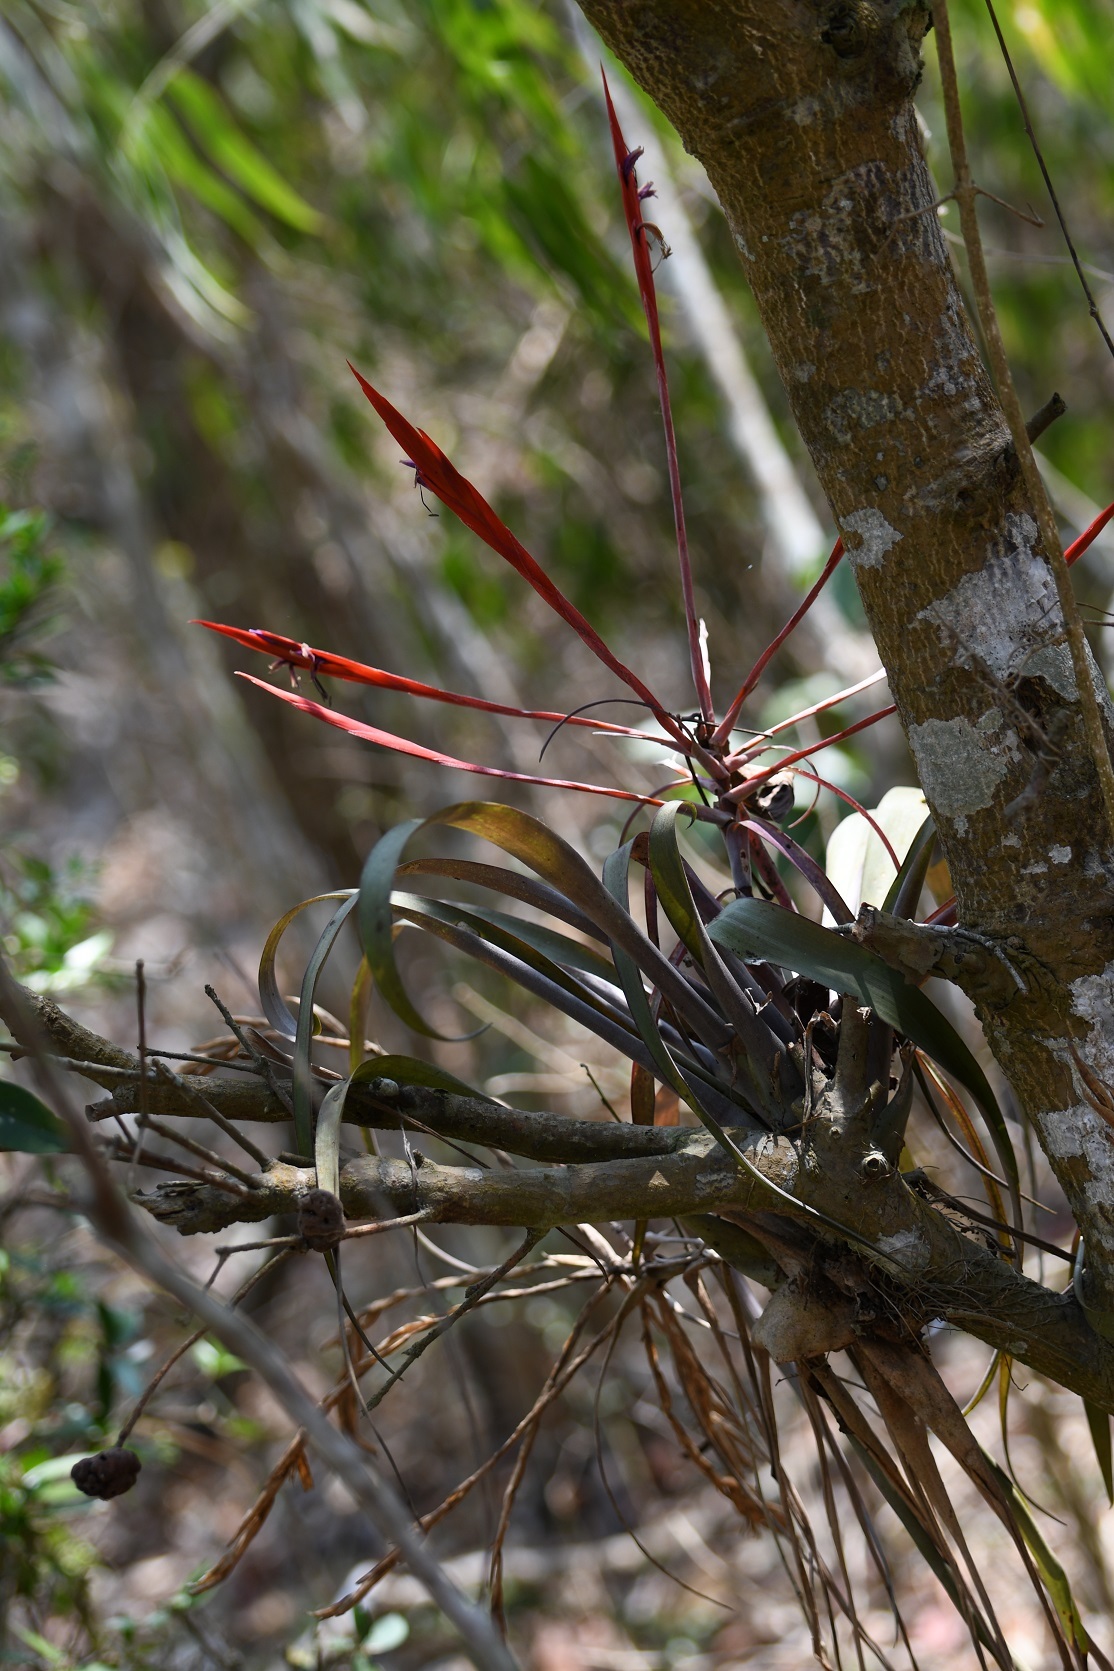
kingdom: Plantae
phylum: Tracheophyta
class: Liliopsida
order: Poales
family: Bromeliaceae
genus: Tillandsia
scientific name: Tillandsia flabellata
